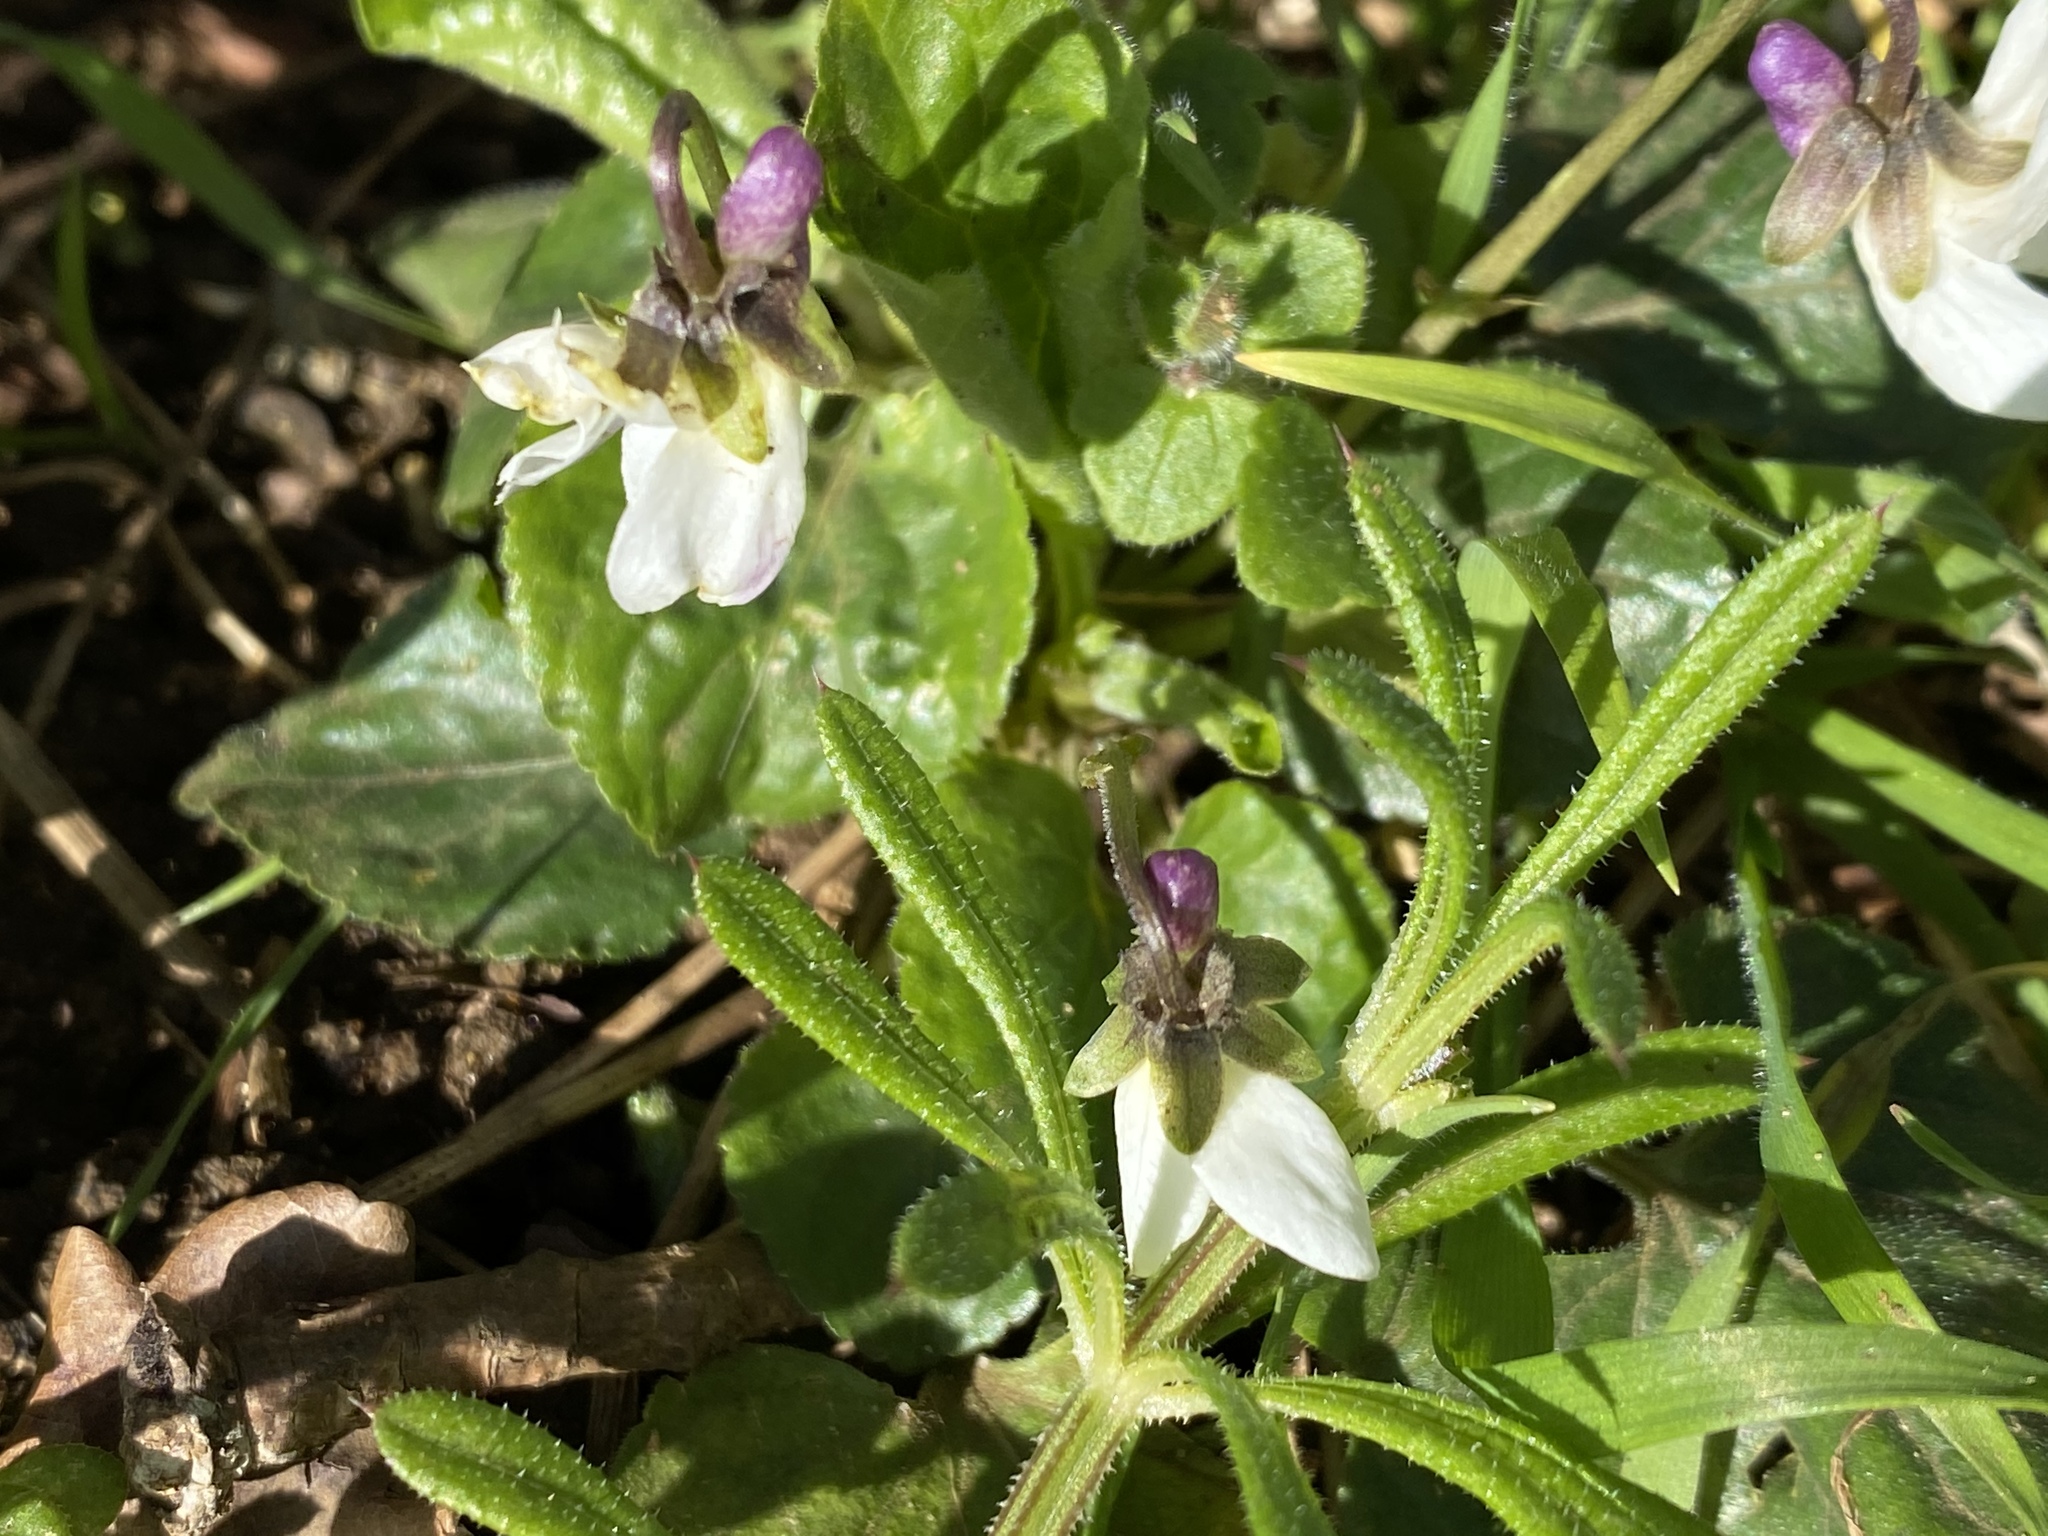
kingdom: Plantae
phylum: Tracheophyta
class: Magnoliopsida
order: Malpighiales
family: Violaceae
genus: Viola
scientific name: Viola odorata
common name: Sweet violet
